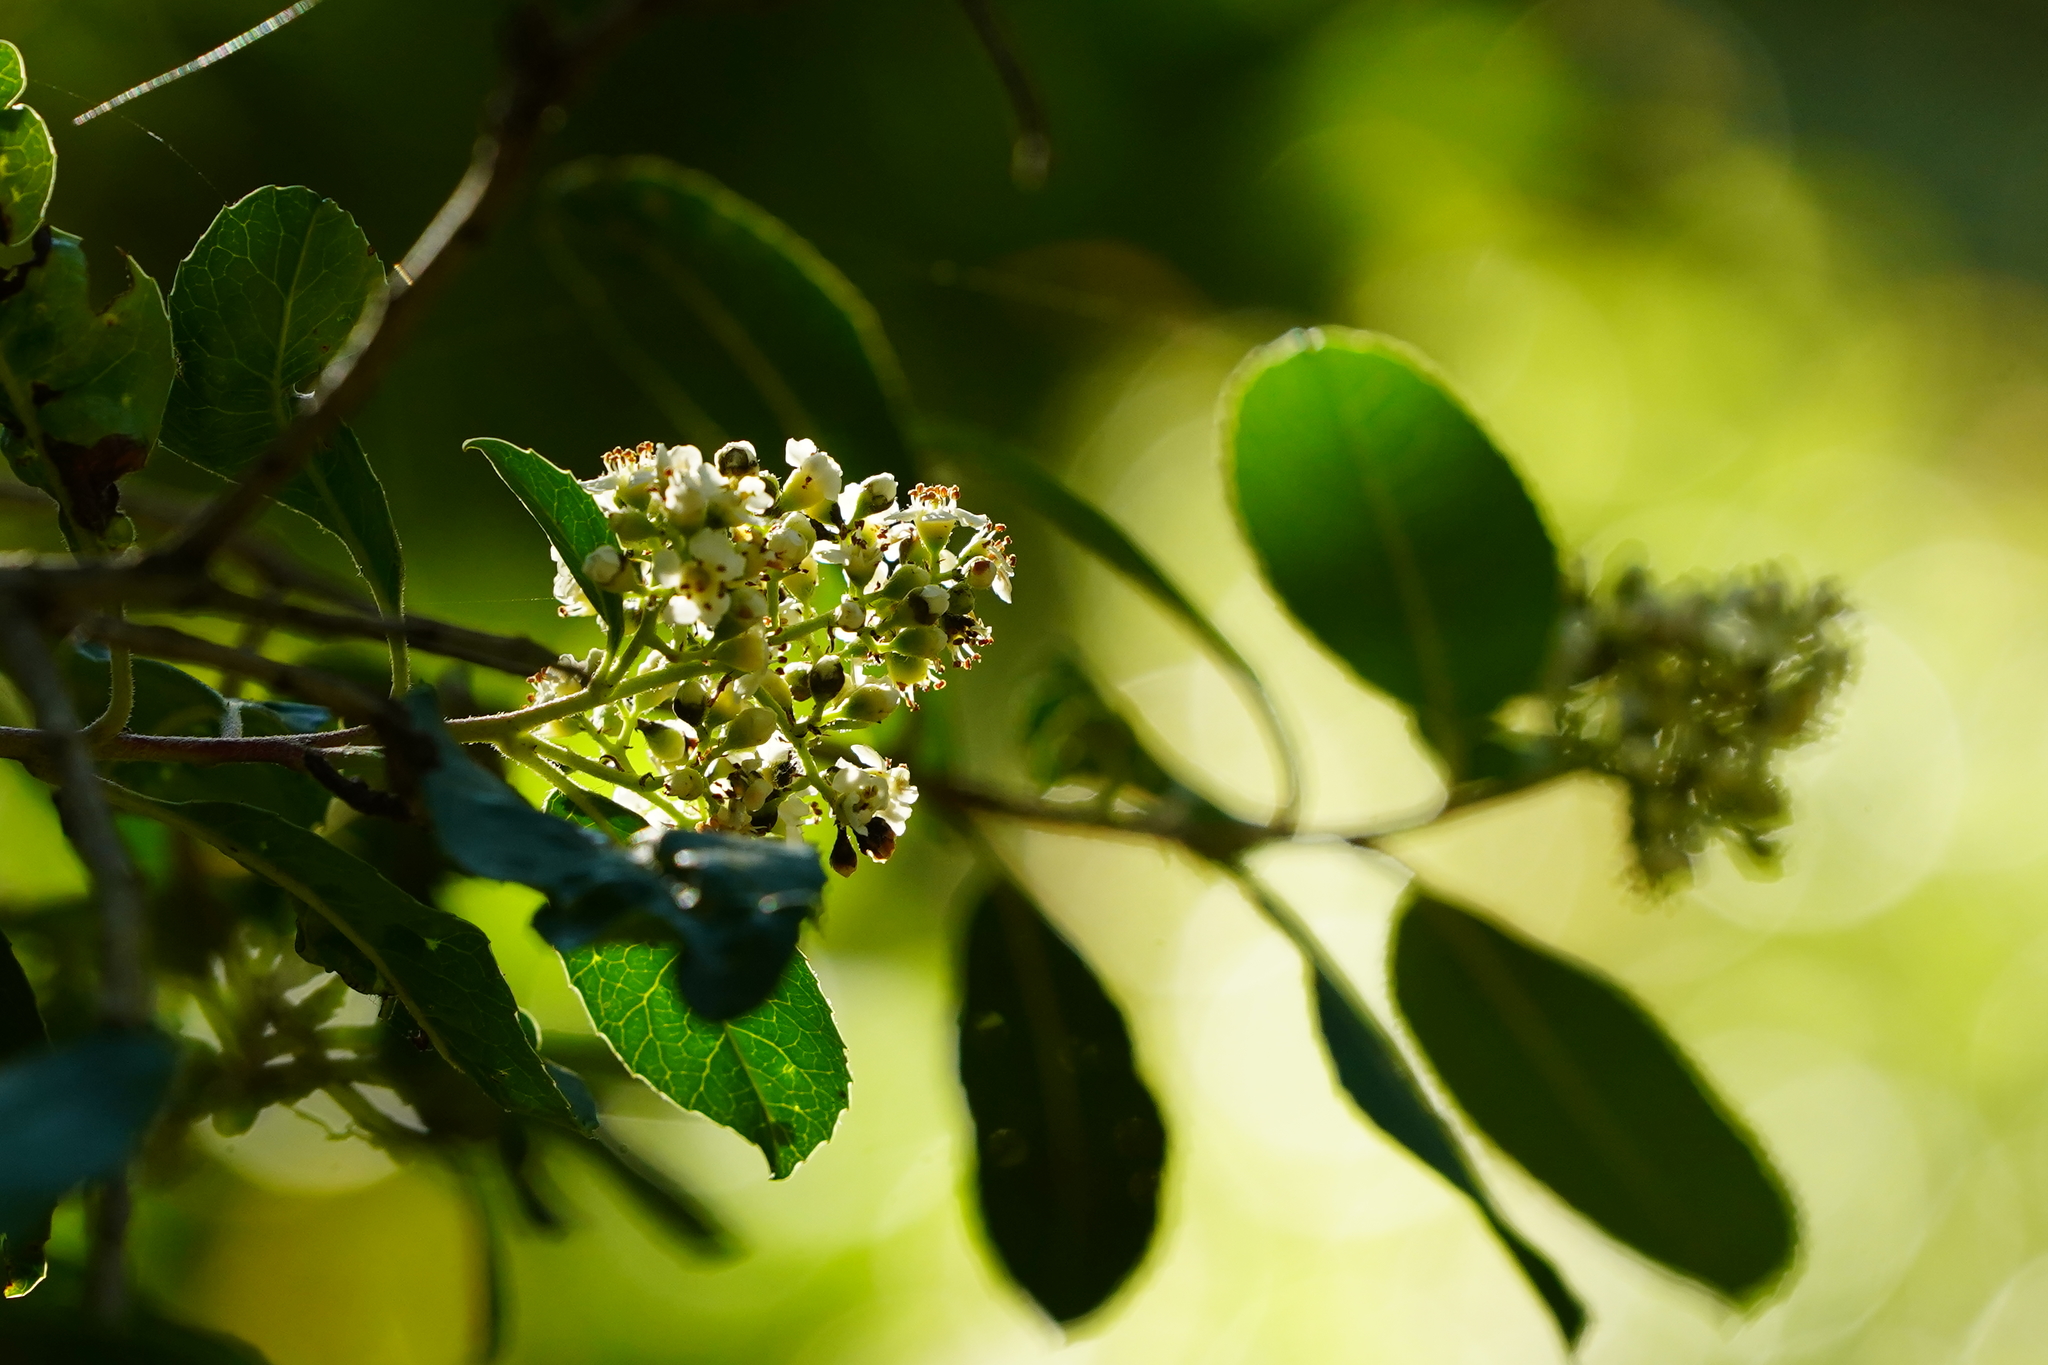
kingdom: Plantae
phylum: Tracheophyta
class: Magnoliopsida
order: Rosales
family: Rosaceae
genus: Heteromeles
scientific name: Heteromeles arbutifolia
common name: California-holly
